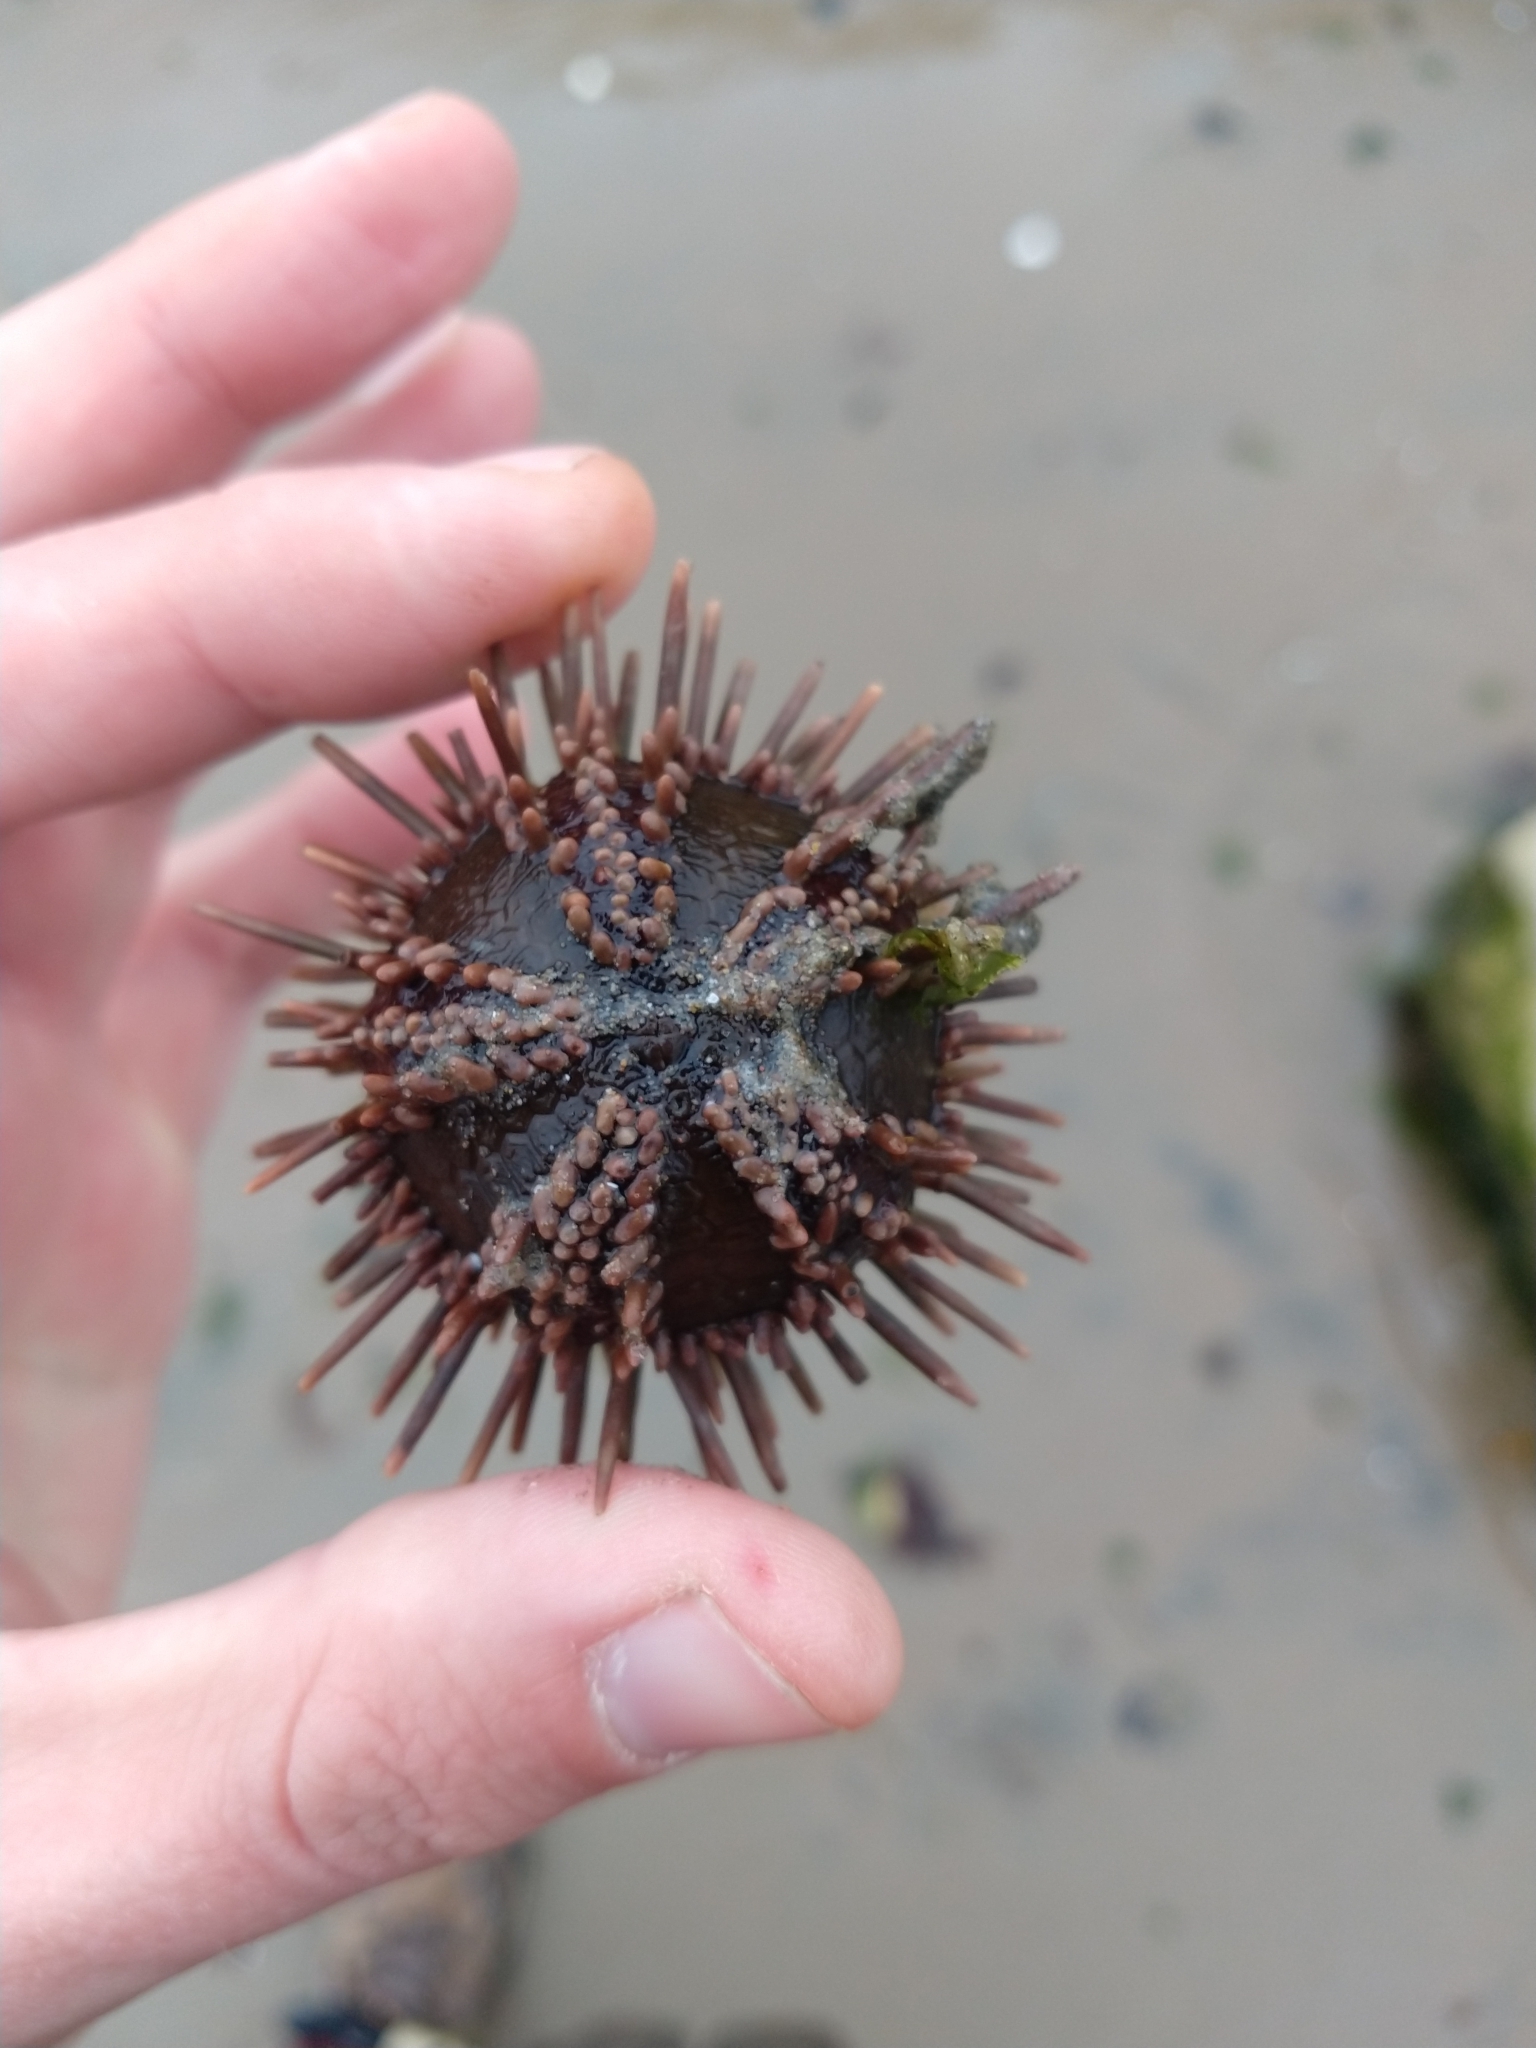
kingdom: Animalia
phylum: Echinodermata
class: Echinoidea
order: Arbacioida
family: Arbaciidae
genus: Arbacia
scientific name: Arbacia dufresnii
